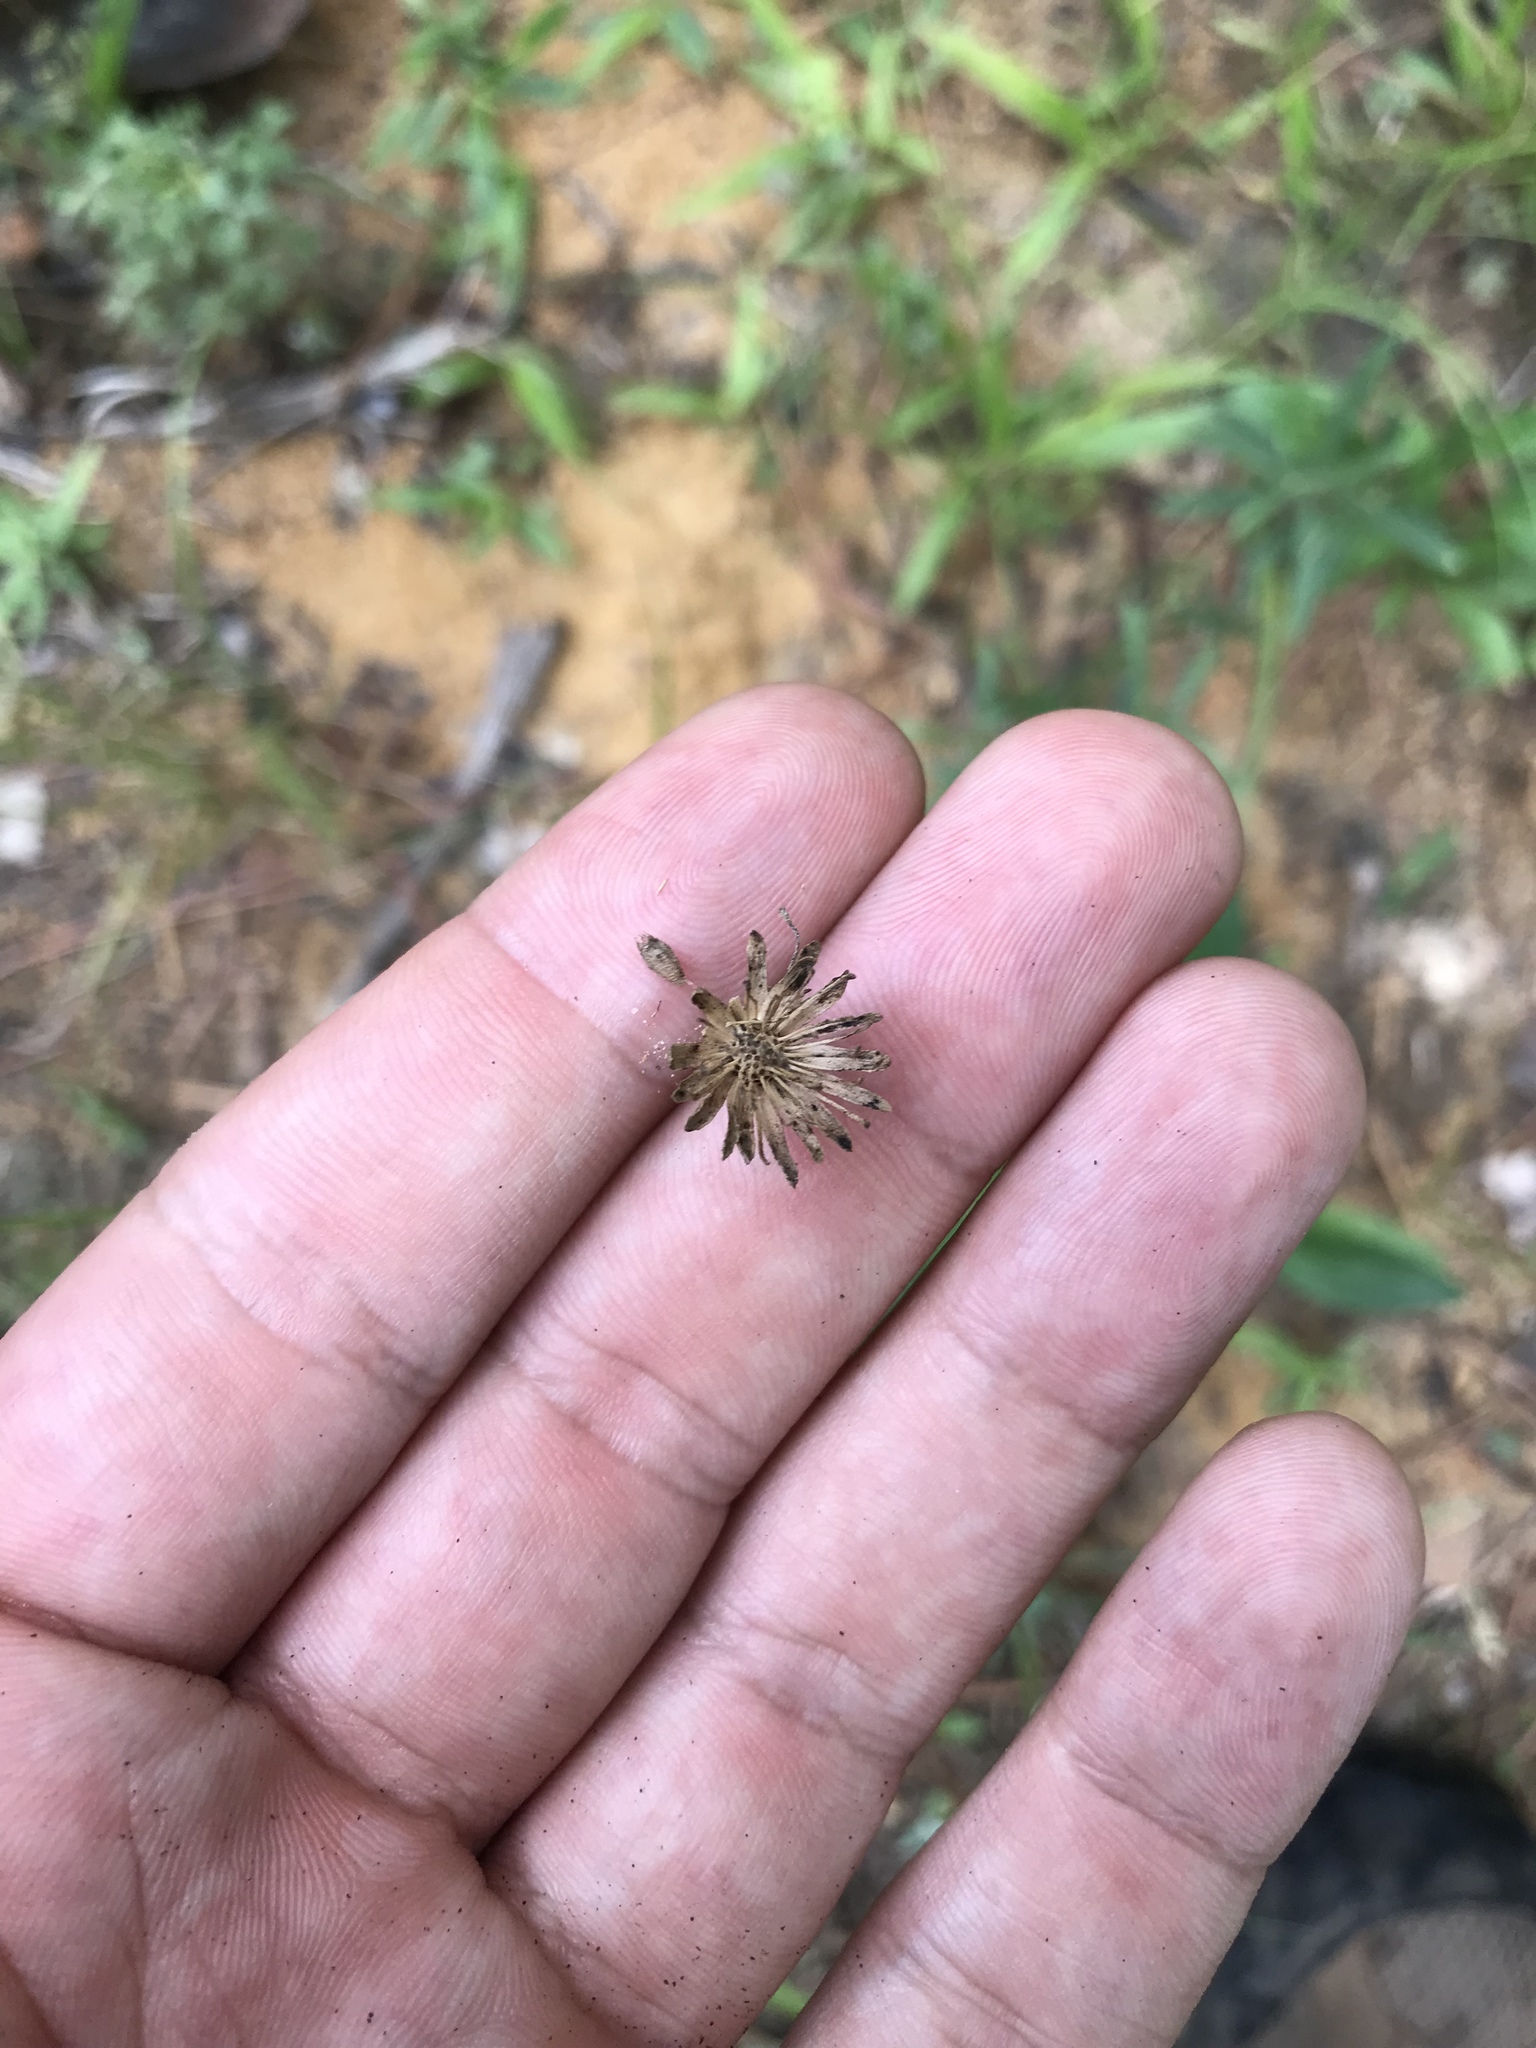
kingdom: Plantae
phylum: Tracheophyta
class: Magnoliopsida
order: Asterales
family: Asteraceae
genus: Marshallia
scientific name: Marshallia obovata
